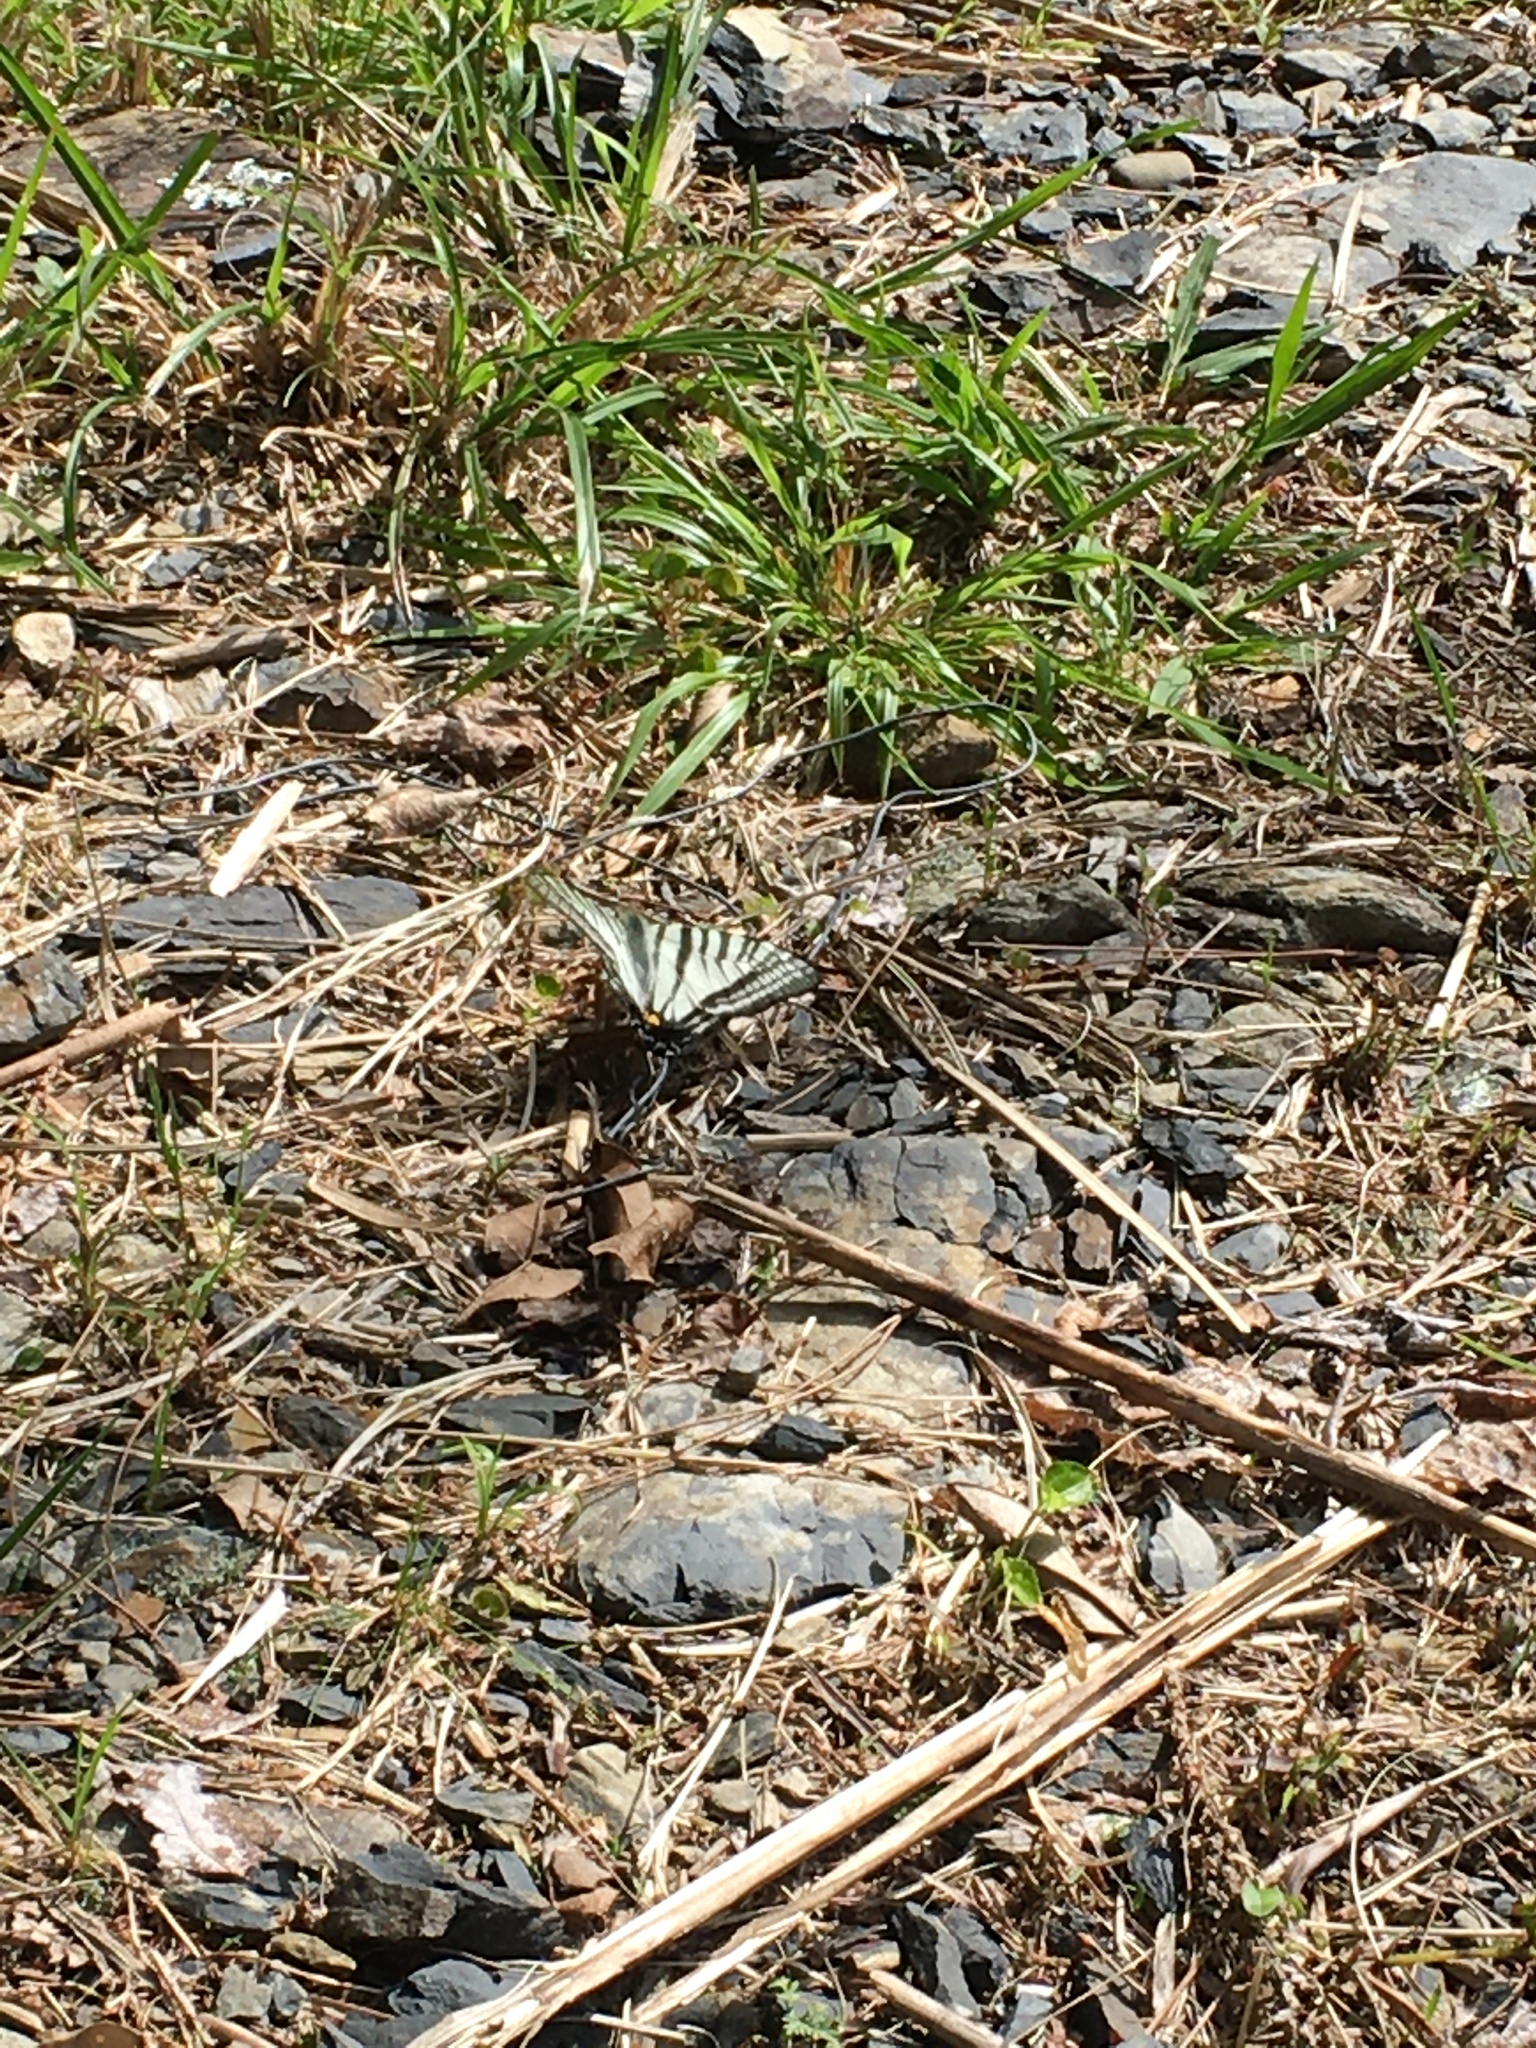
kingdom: Animalia
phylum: Arthropoda
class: Insecta
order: Lepidoptera
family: Papilionidae
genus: Graphium
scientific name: Graphium eurous
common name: Sixbar swordtail
